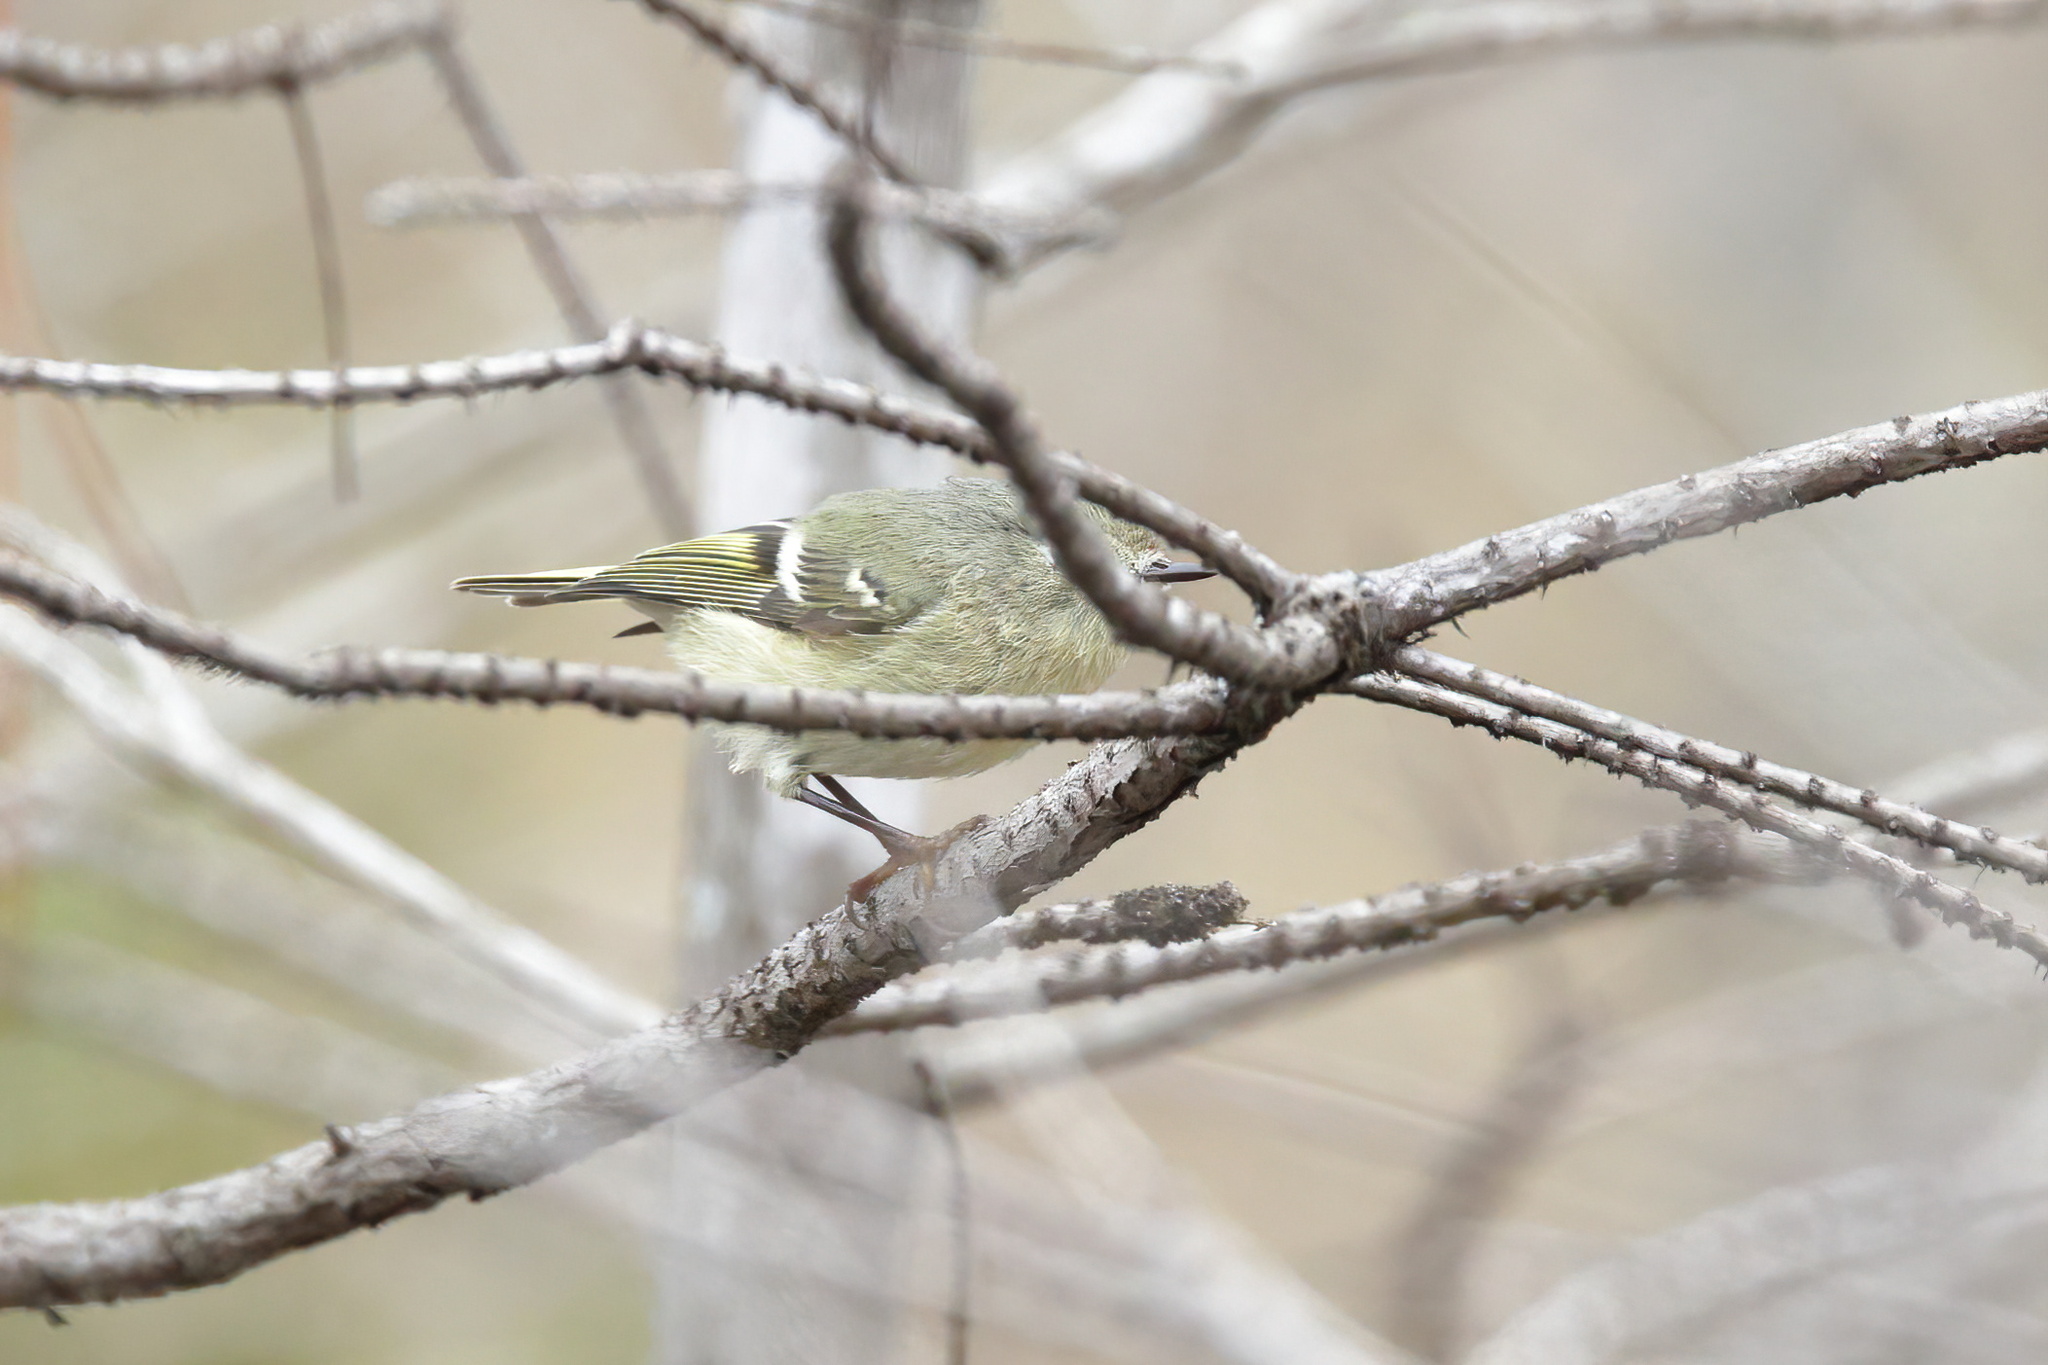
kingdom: Animalia
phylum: Chordata
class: Aves
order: Passeriformes
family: Regulidae
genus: Regulus
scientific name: Regulus calendula
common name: Ruby-crowned kinglet
